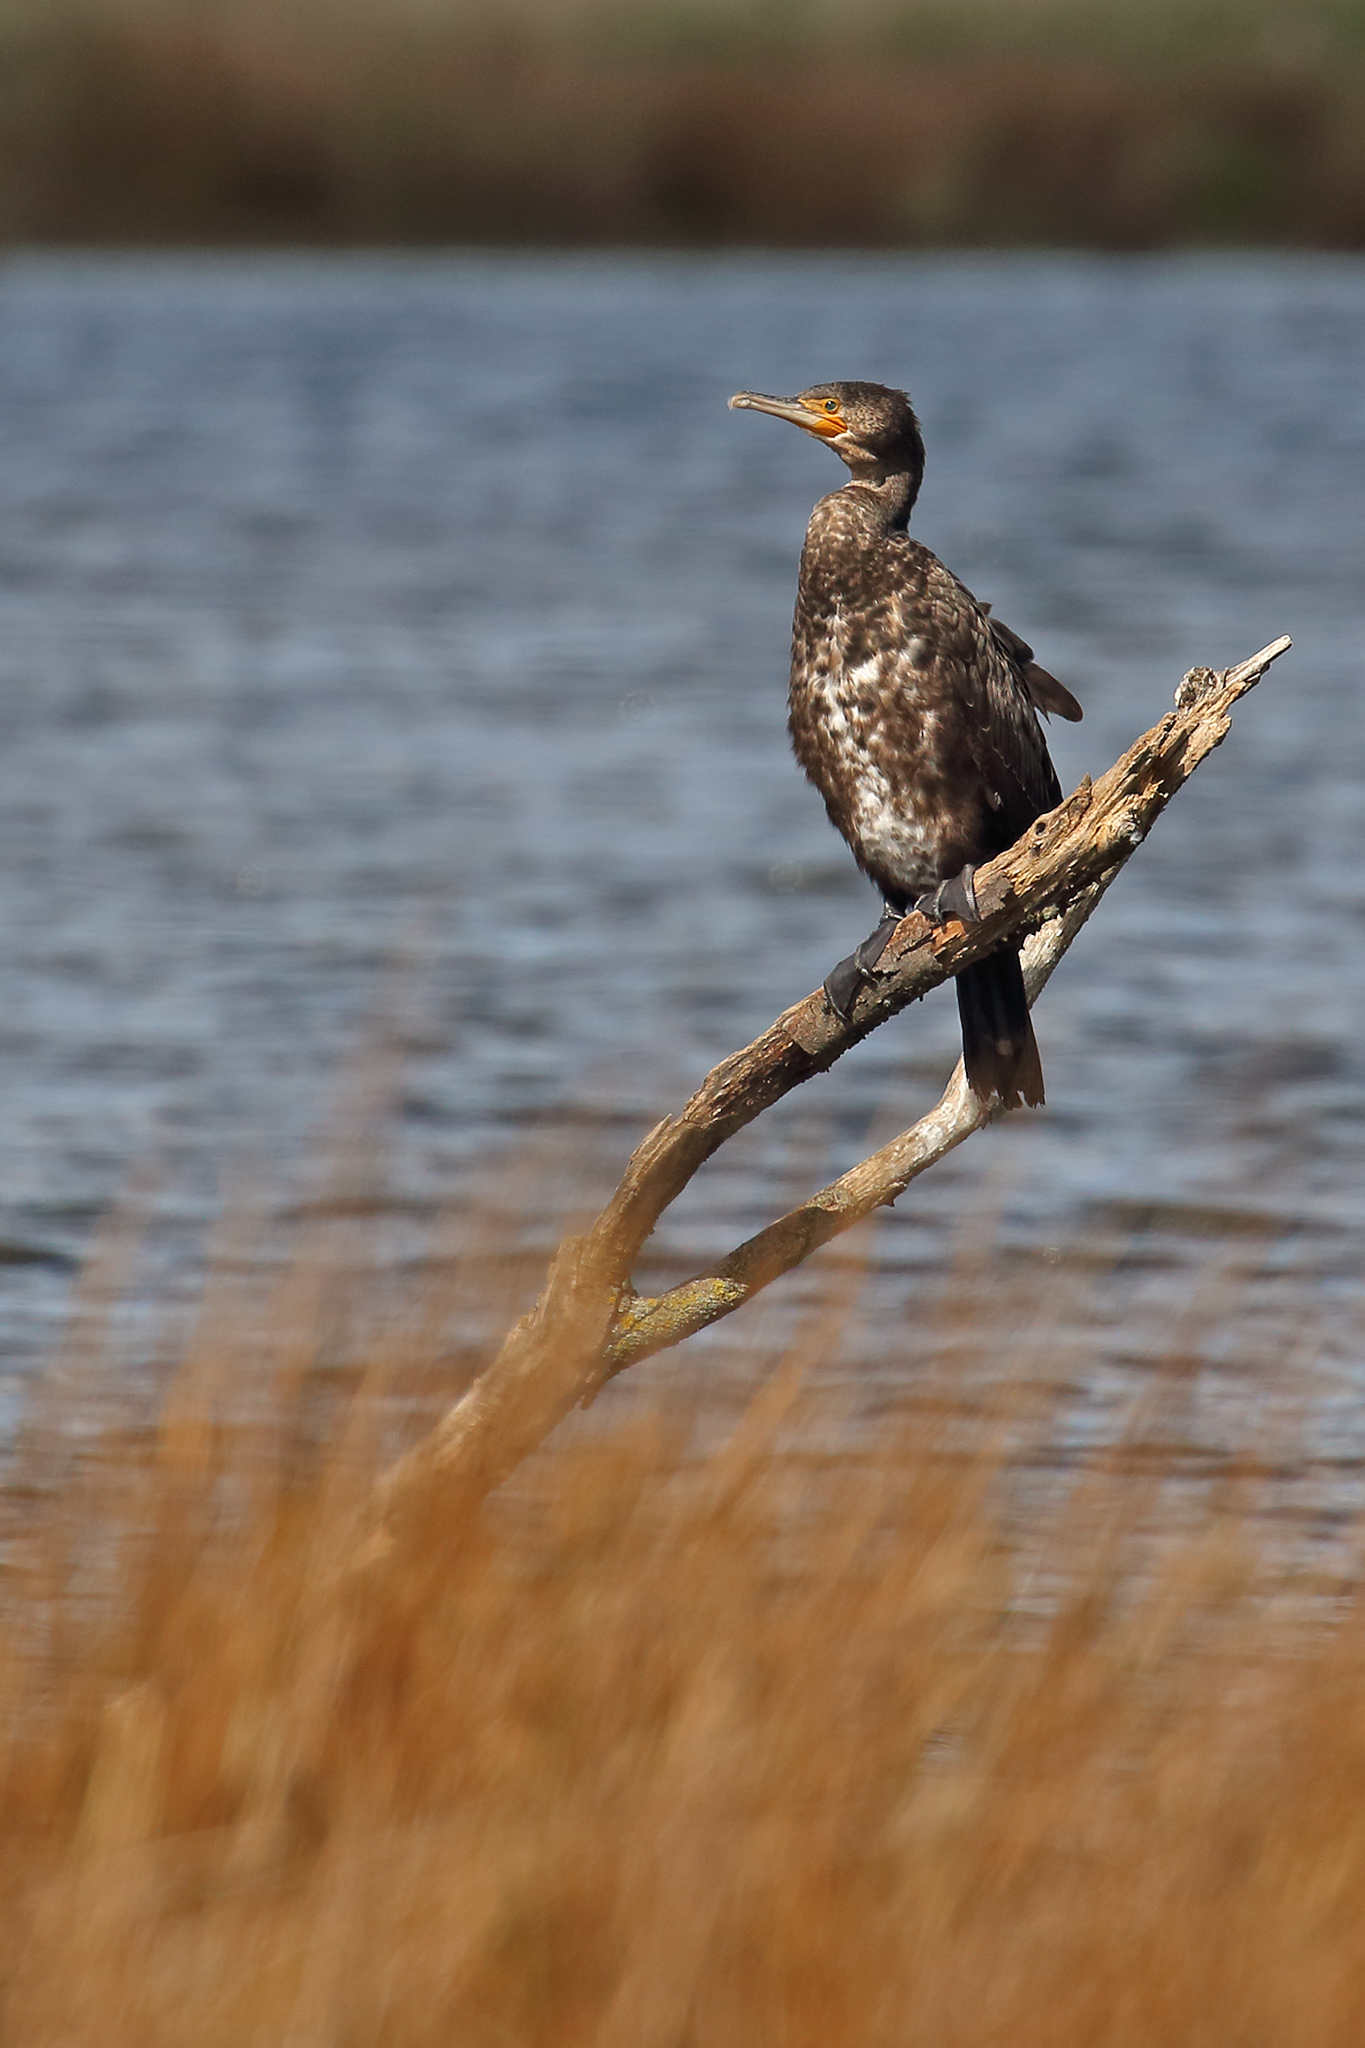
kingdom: Animalia
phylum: Chordata
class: Aves
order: Suliformes
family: Phalacrocoracidae
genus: Phalacrocorax
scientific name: Phalacrocorax carbo
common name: Great cormorant
